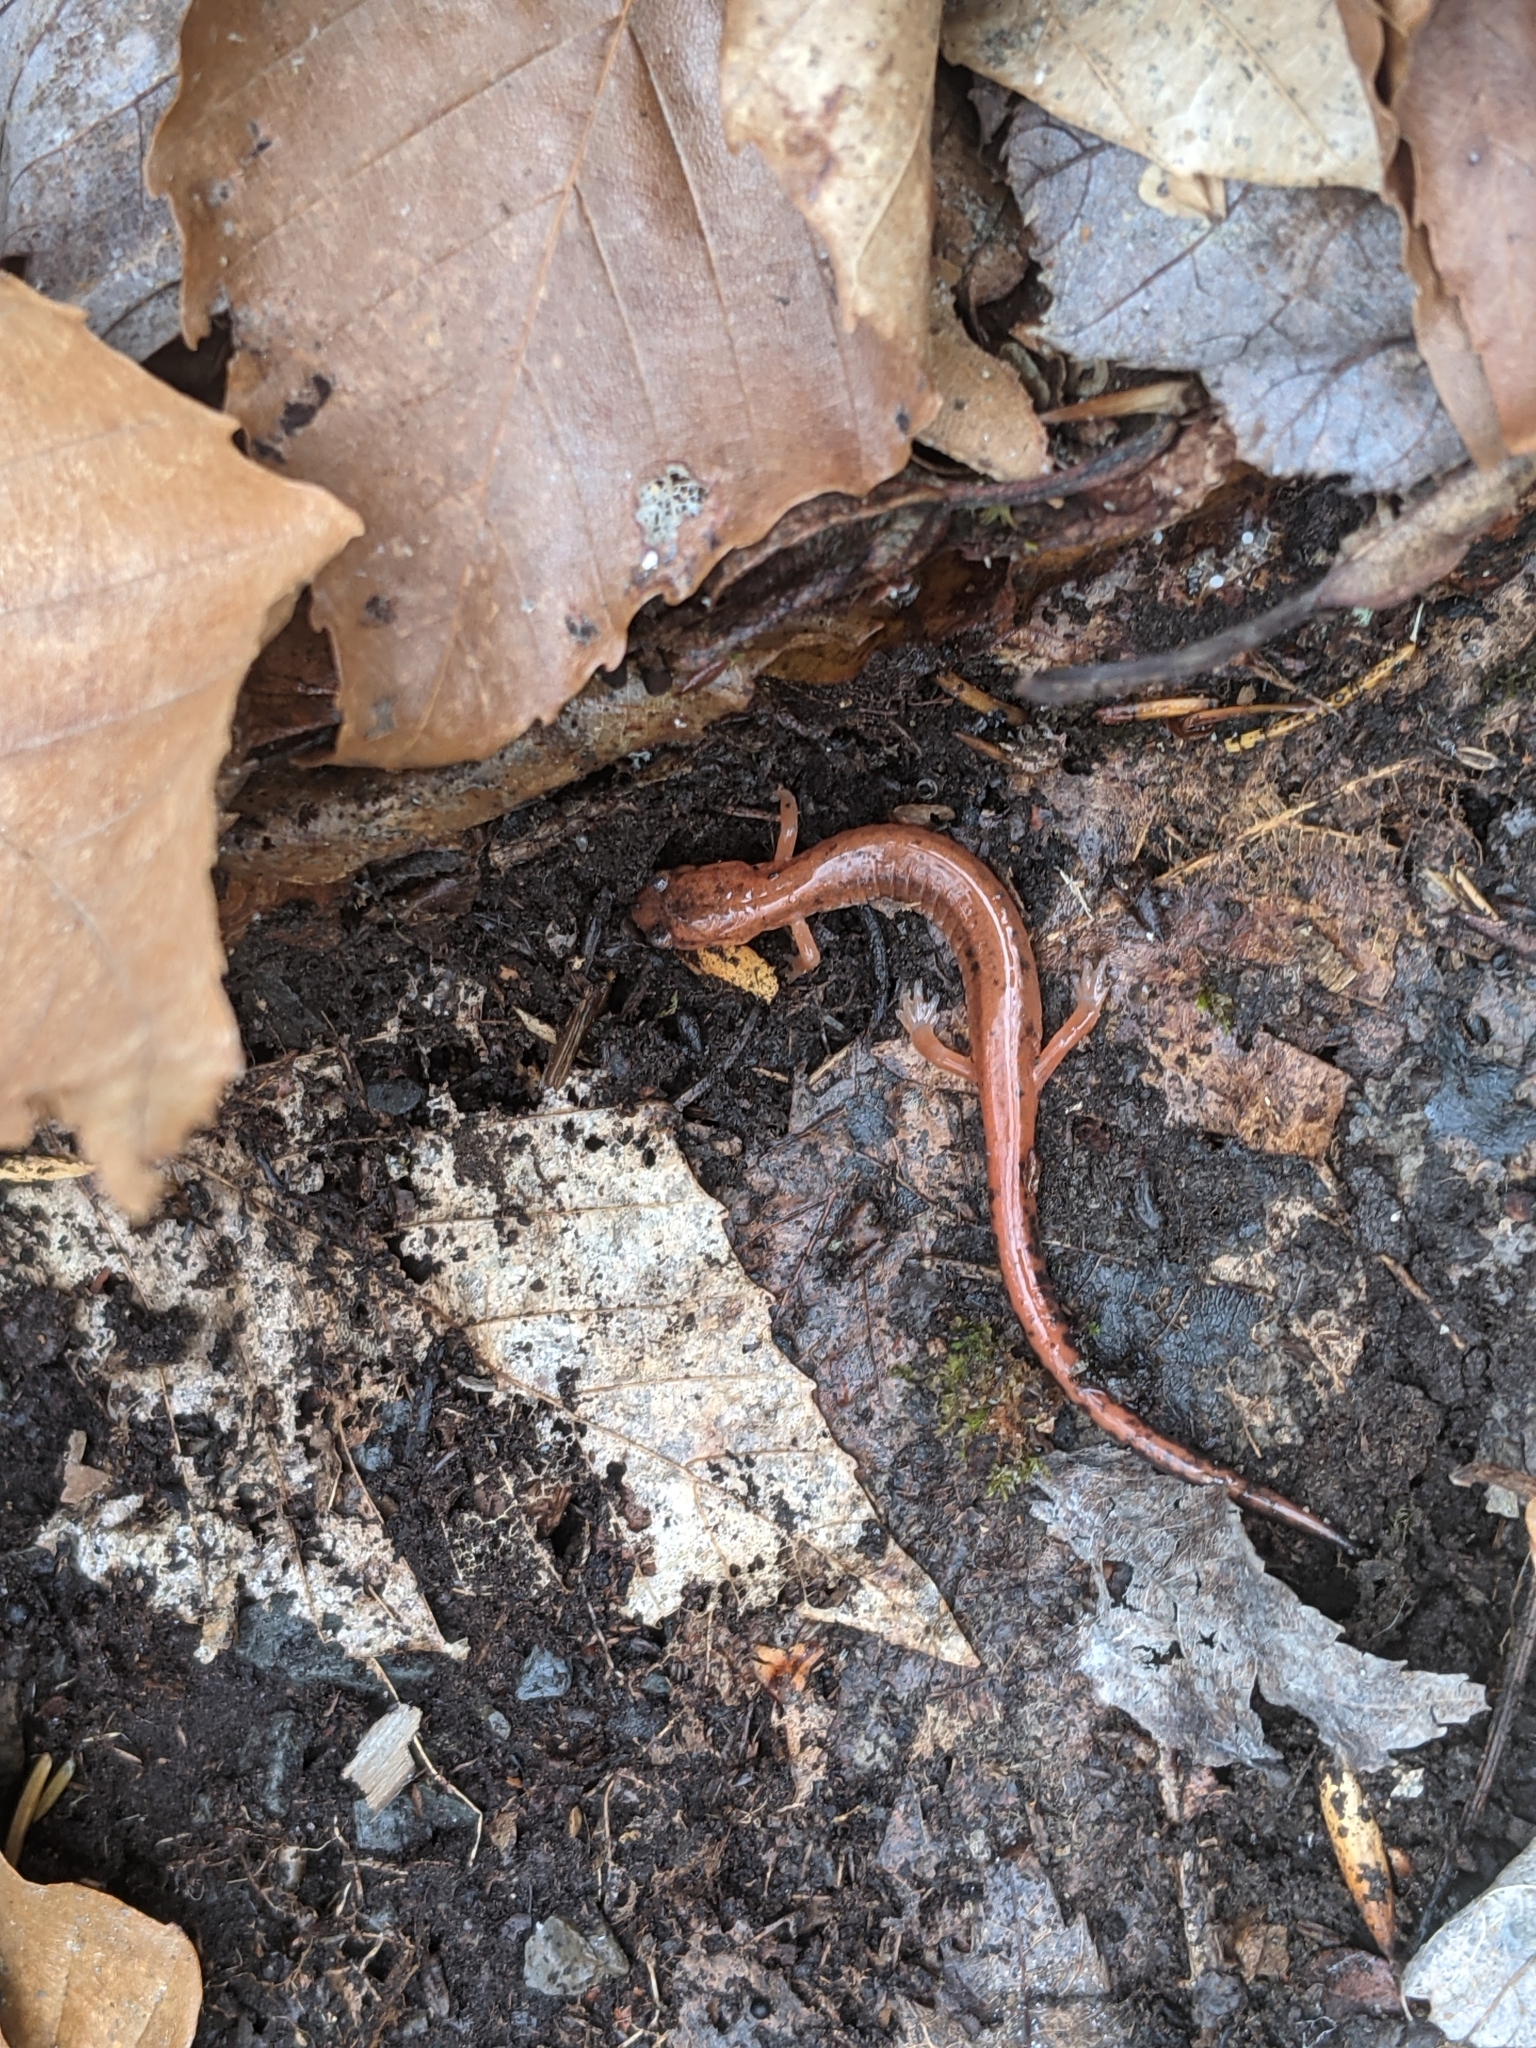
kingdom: Animalia
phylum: Chordata
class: Amphibia
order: Caudata
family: Plethodontidae
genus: Plethodon
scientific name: Plethodon cinereus
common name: Redback salamander
